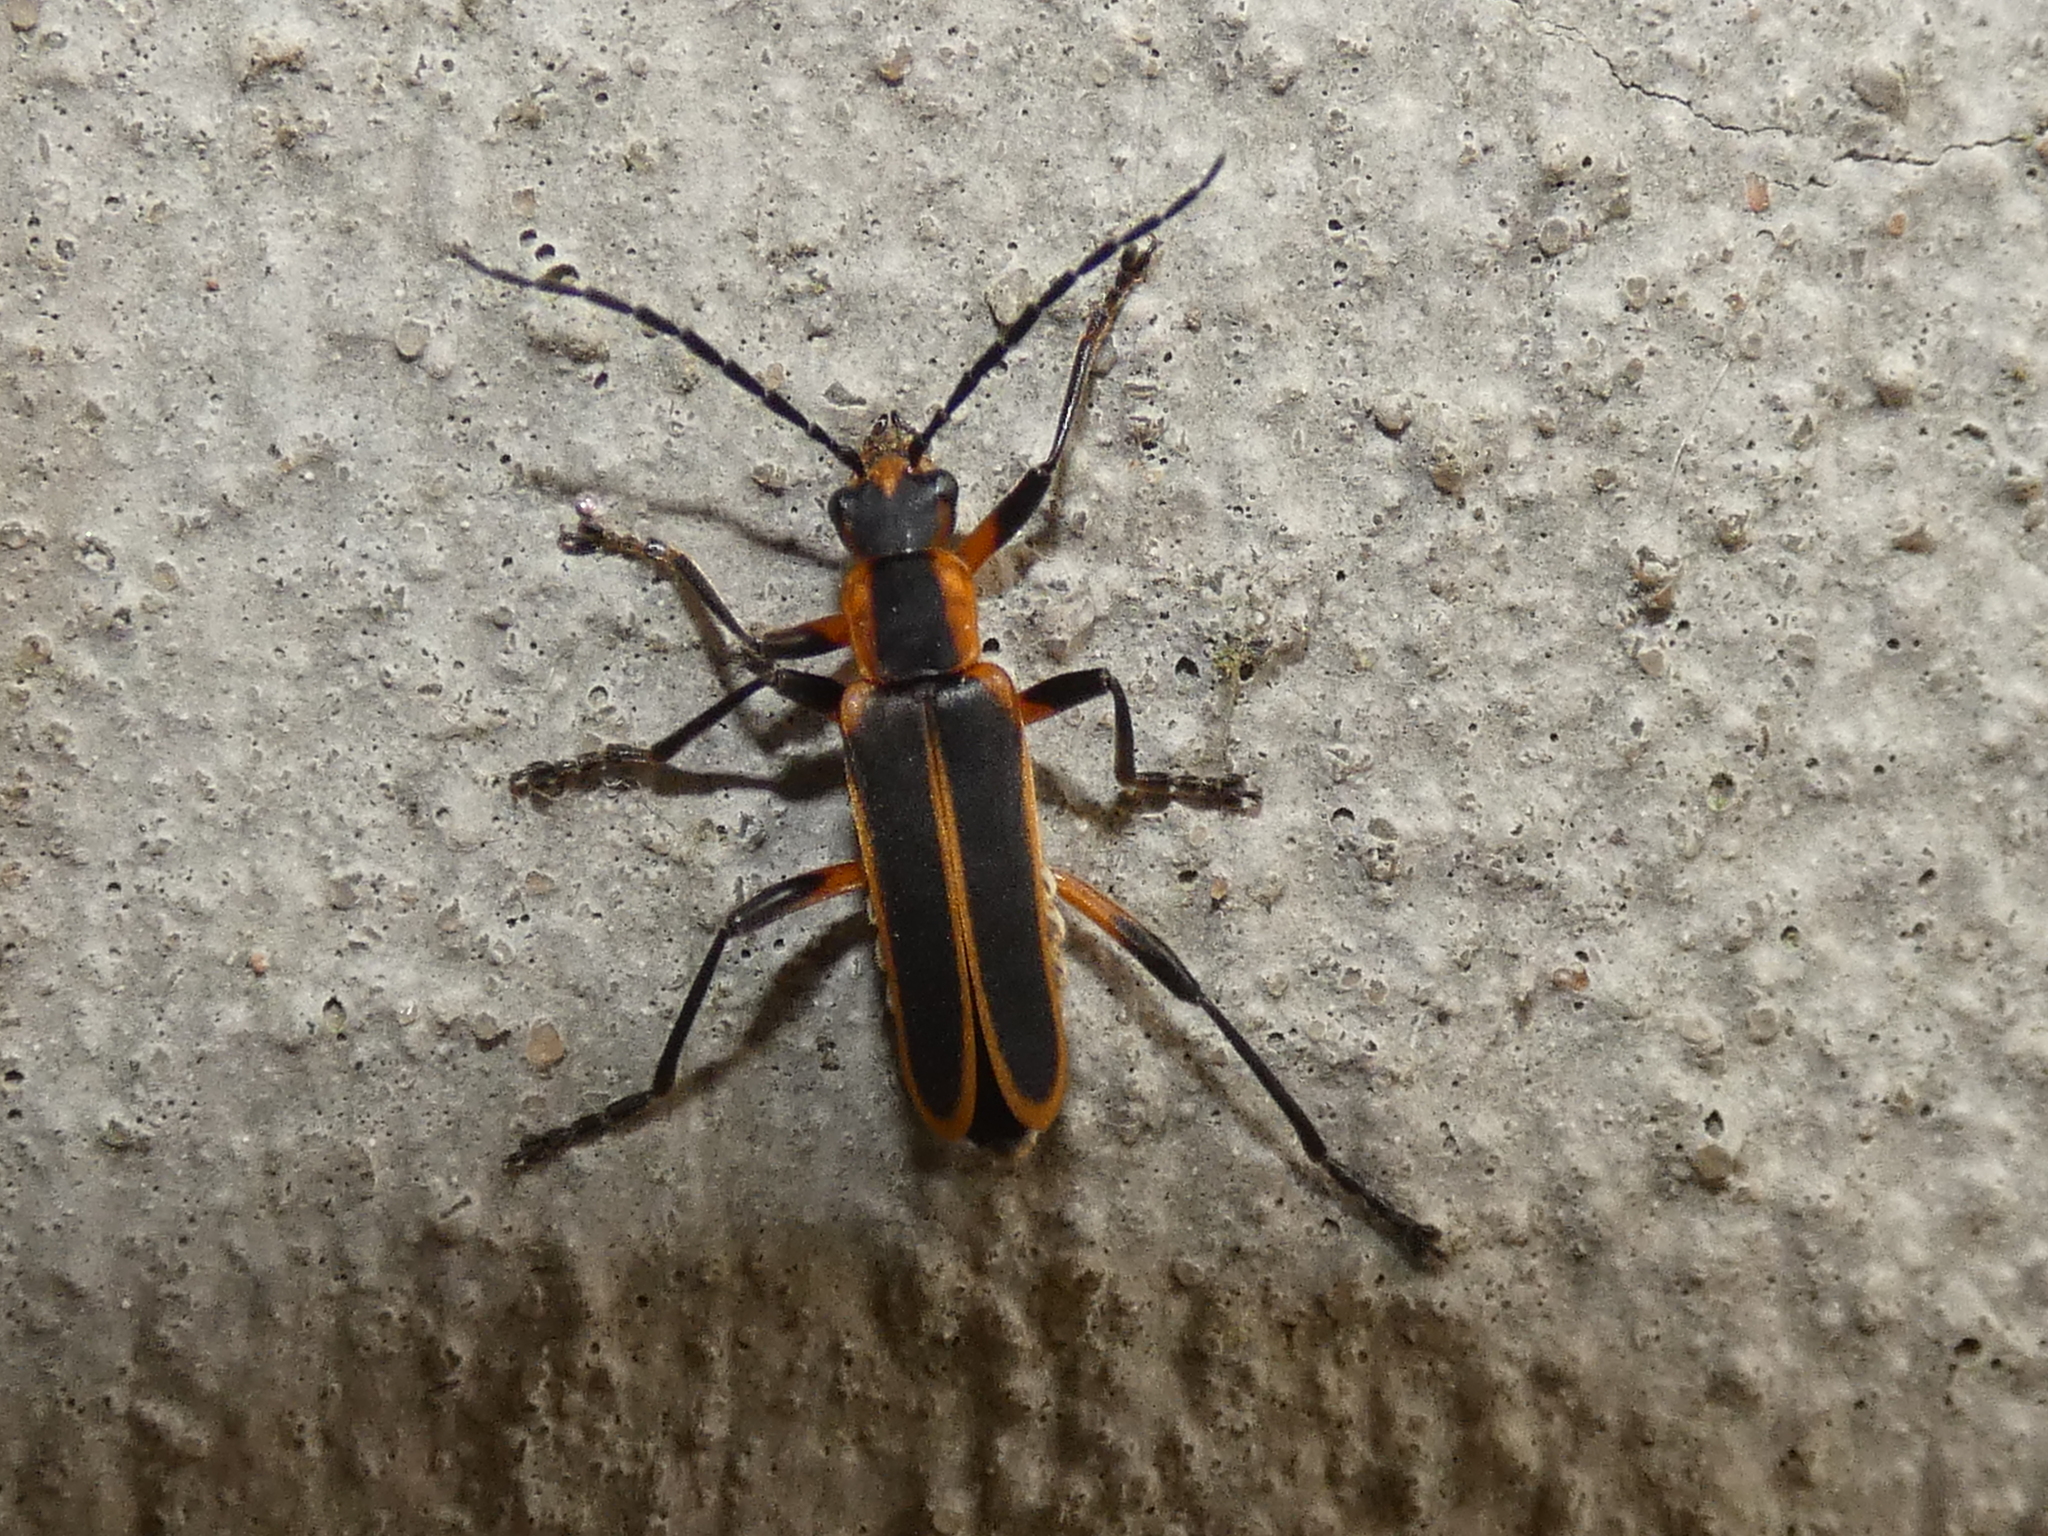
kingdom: Animalia
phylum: Arthropoda
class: Insecta
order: Coleoptera
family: Cantharidae
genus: Chauliognathus
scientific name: Chauliognathus marginatus
